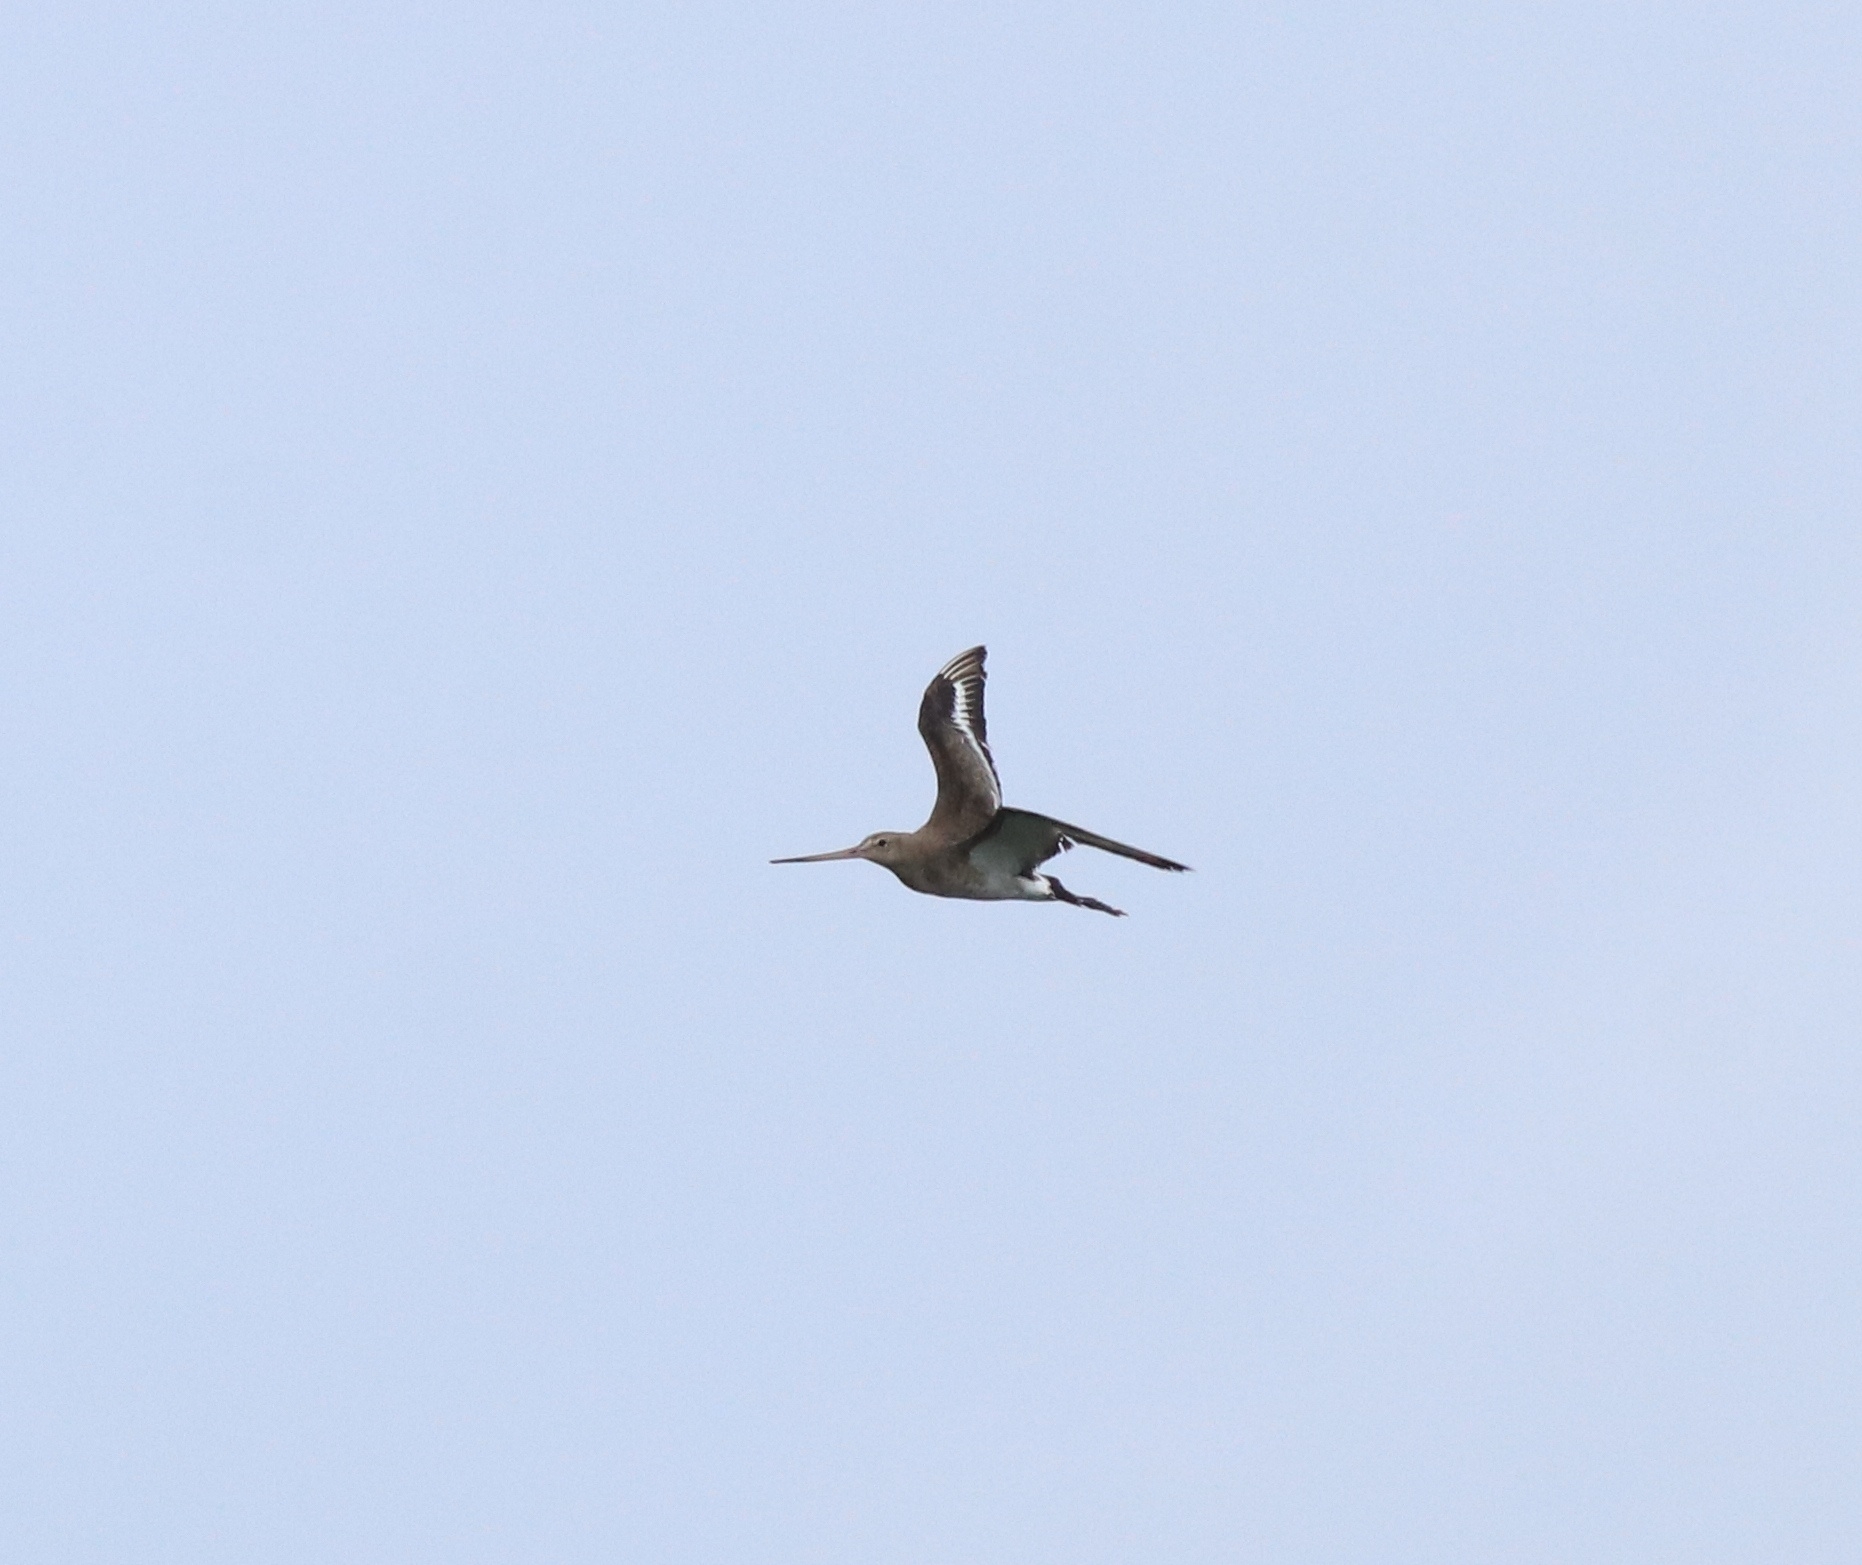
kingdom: Animalia
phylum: Chordata
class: Aves
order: Charadriiformes
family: Scolopacidae
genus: Limosa
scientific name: Limosa limosa
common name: Black-tailed godwit
